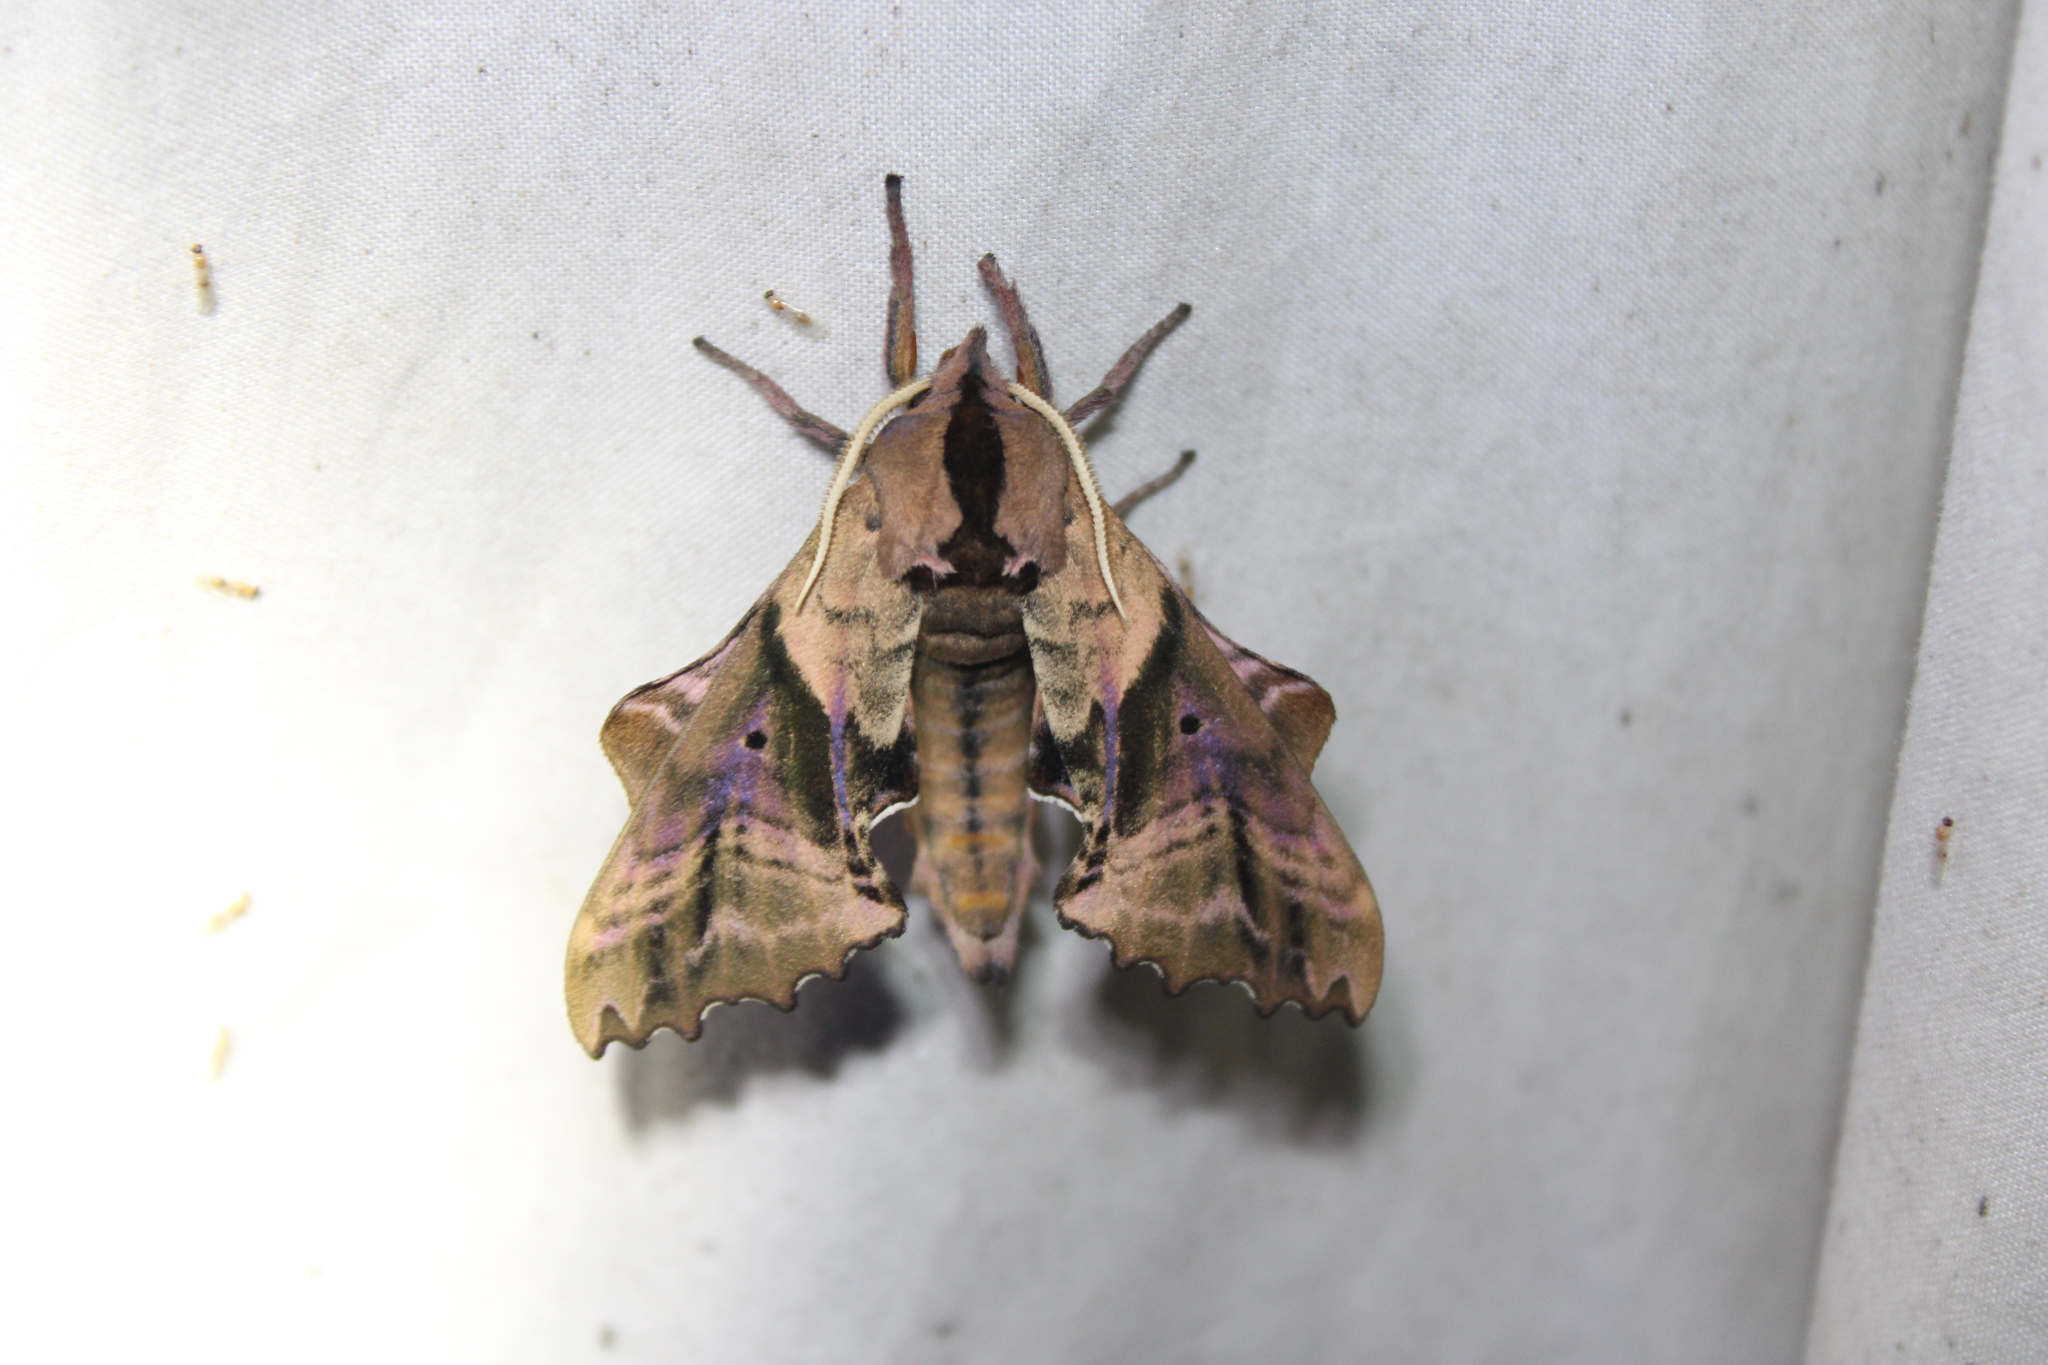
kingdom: Animalia
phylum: Arthropoda
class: Insecta
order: Lepidoptera
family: Sphingidae
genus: Paonias
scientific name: Paonias excaecata
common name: Blind-eyed sphinx
